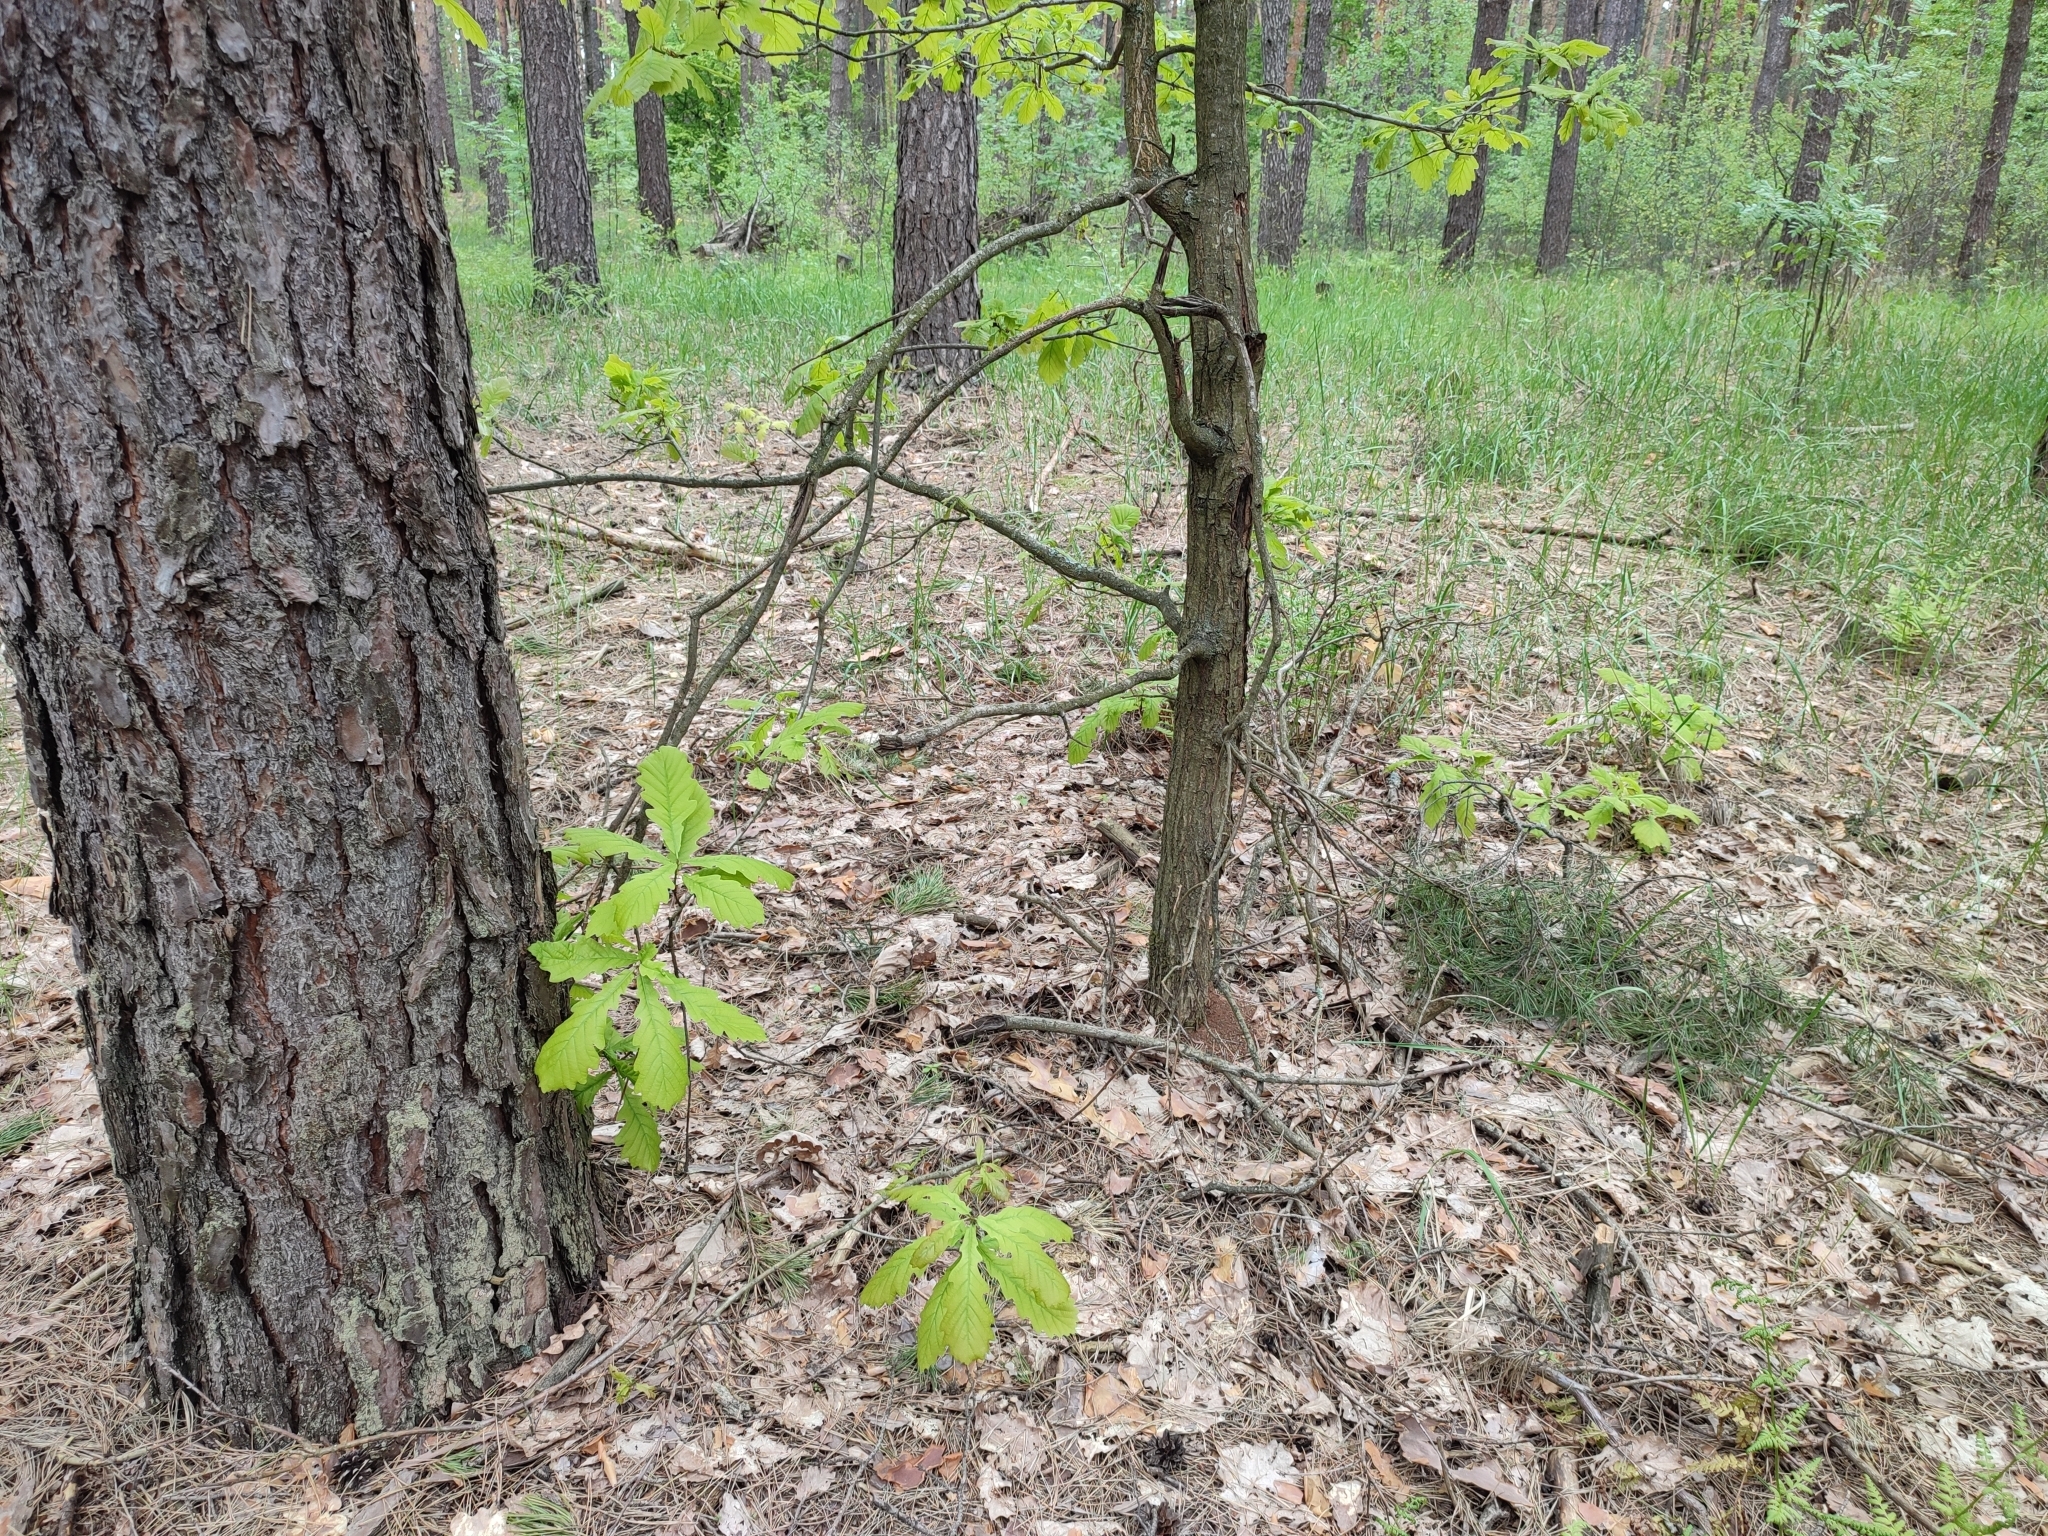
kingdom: Plantae
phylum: Tracheophyta
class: Magnoliopsida
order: Fagales
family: Fagaceae
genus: Quercus
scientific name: Quercus robur
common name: Pedunculate oak
